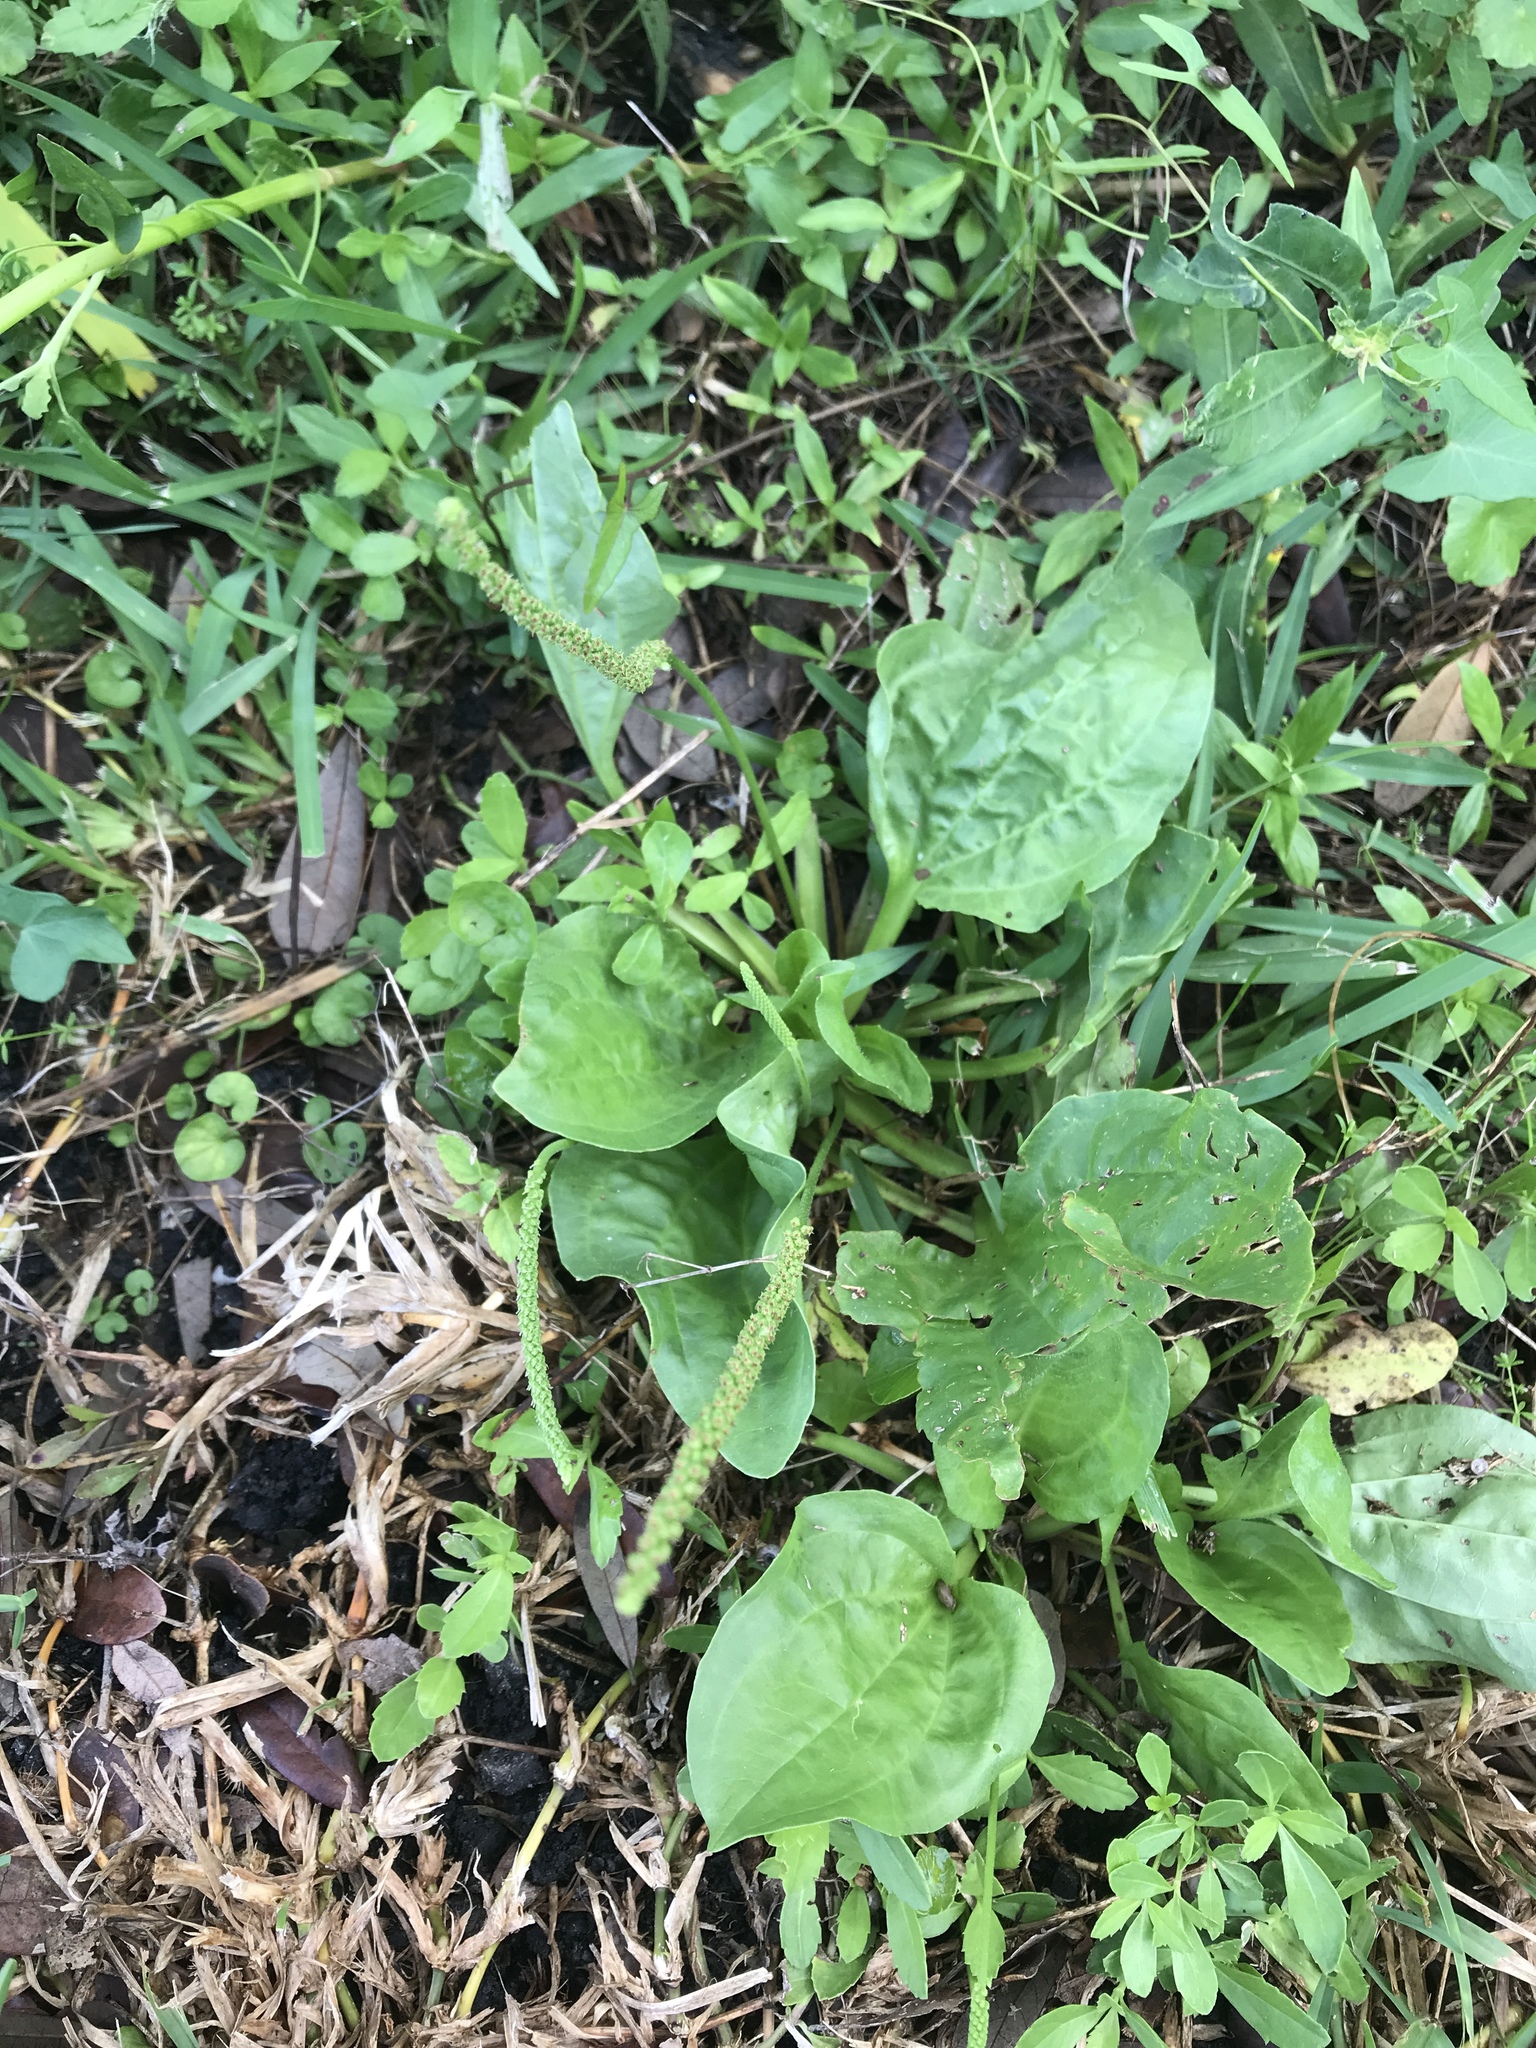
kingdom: Plantae
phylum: Tracheophyta
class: Magnoliopsida
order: Lamiales
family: Plantaginaceae
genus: Plantago
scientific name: Plantago major
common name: Common plantain
